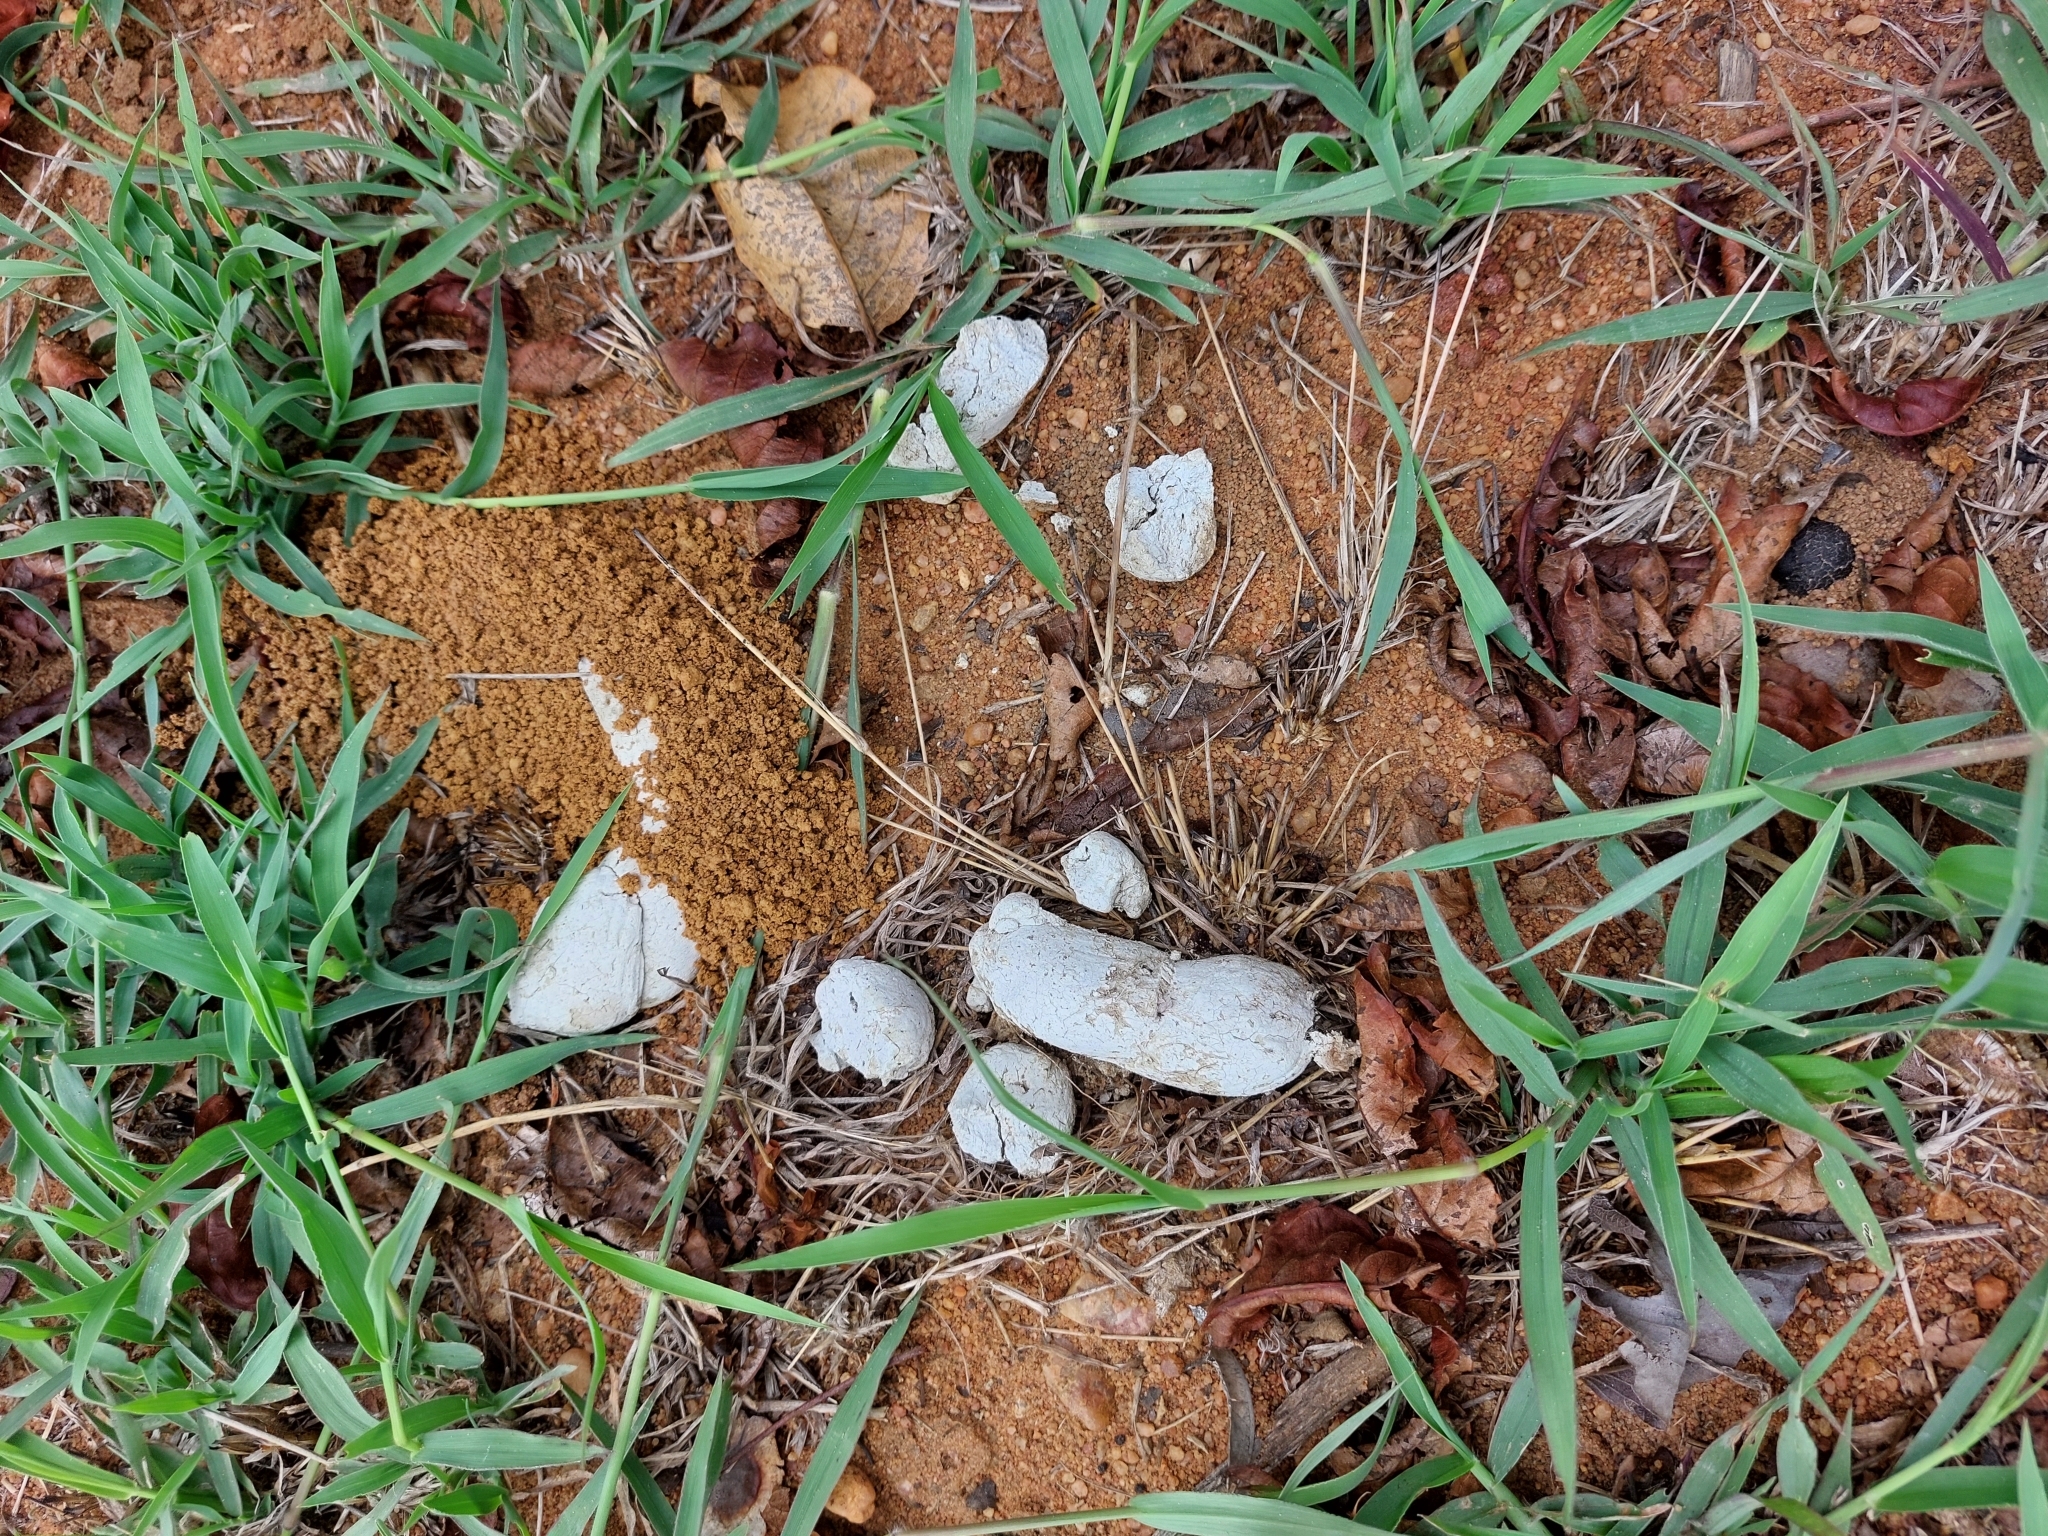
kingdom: Animalia
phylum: Chordata
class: Mammalia
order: Carnivora
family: Hyaenidae
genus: Hyaena
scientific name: Hyaena brunnea
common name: Brown hyena
